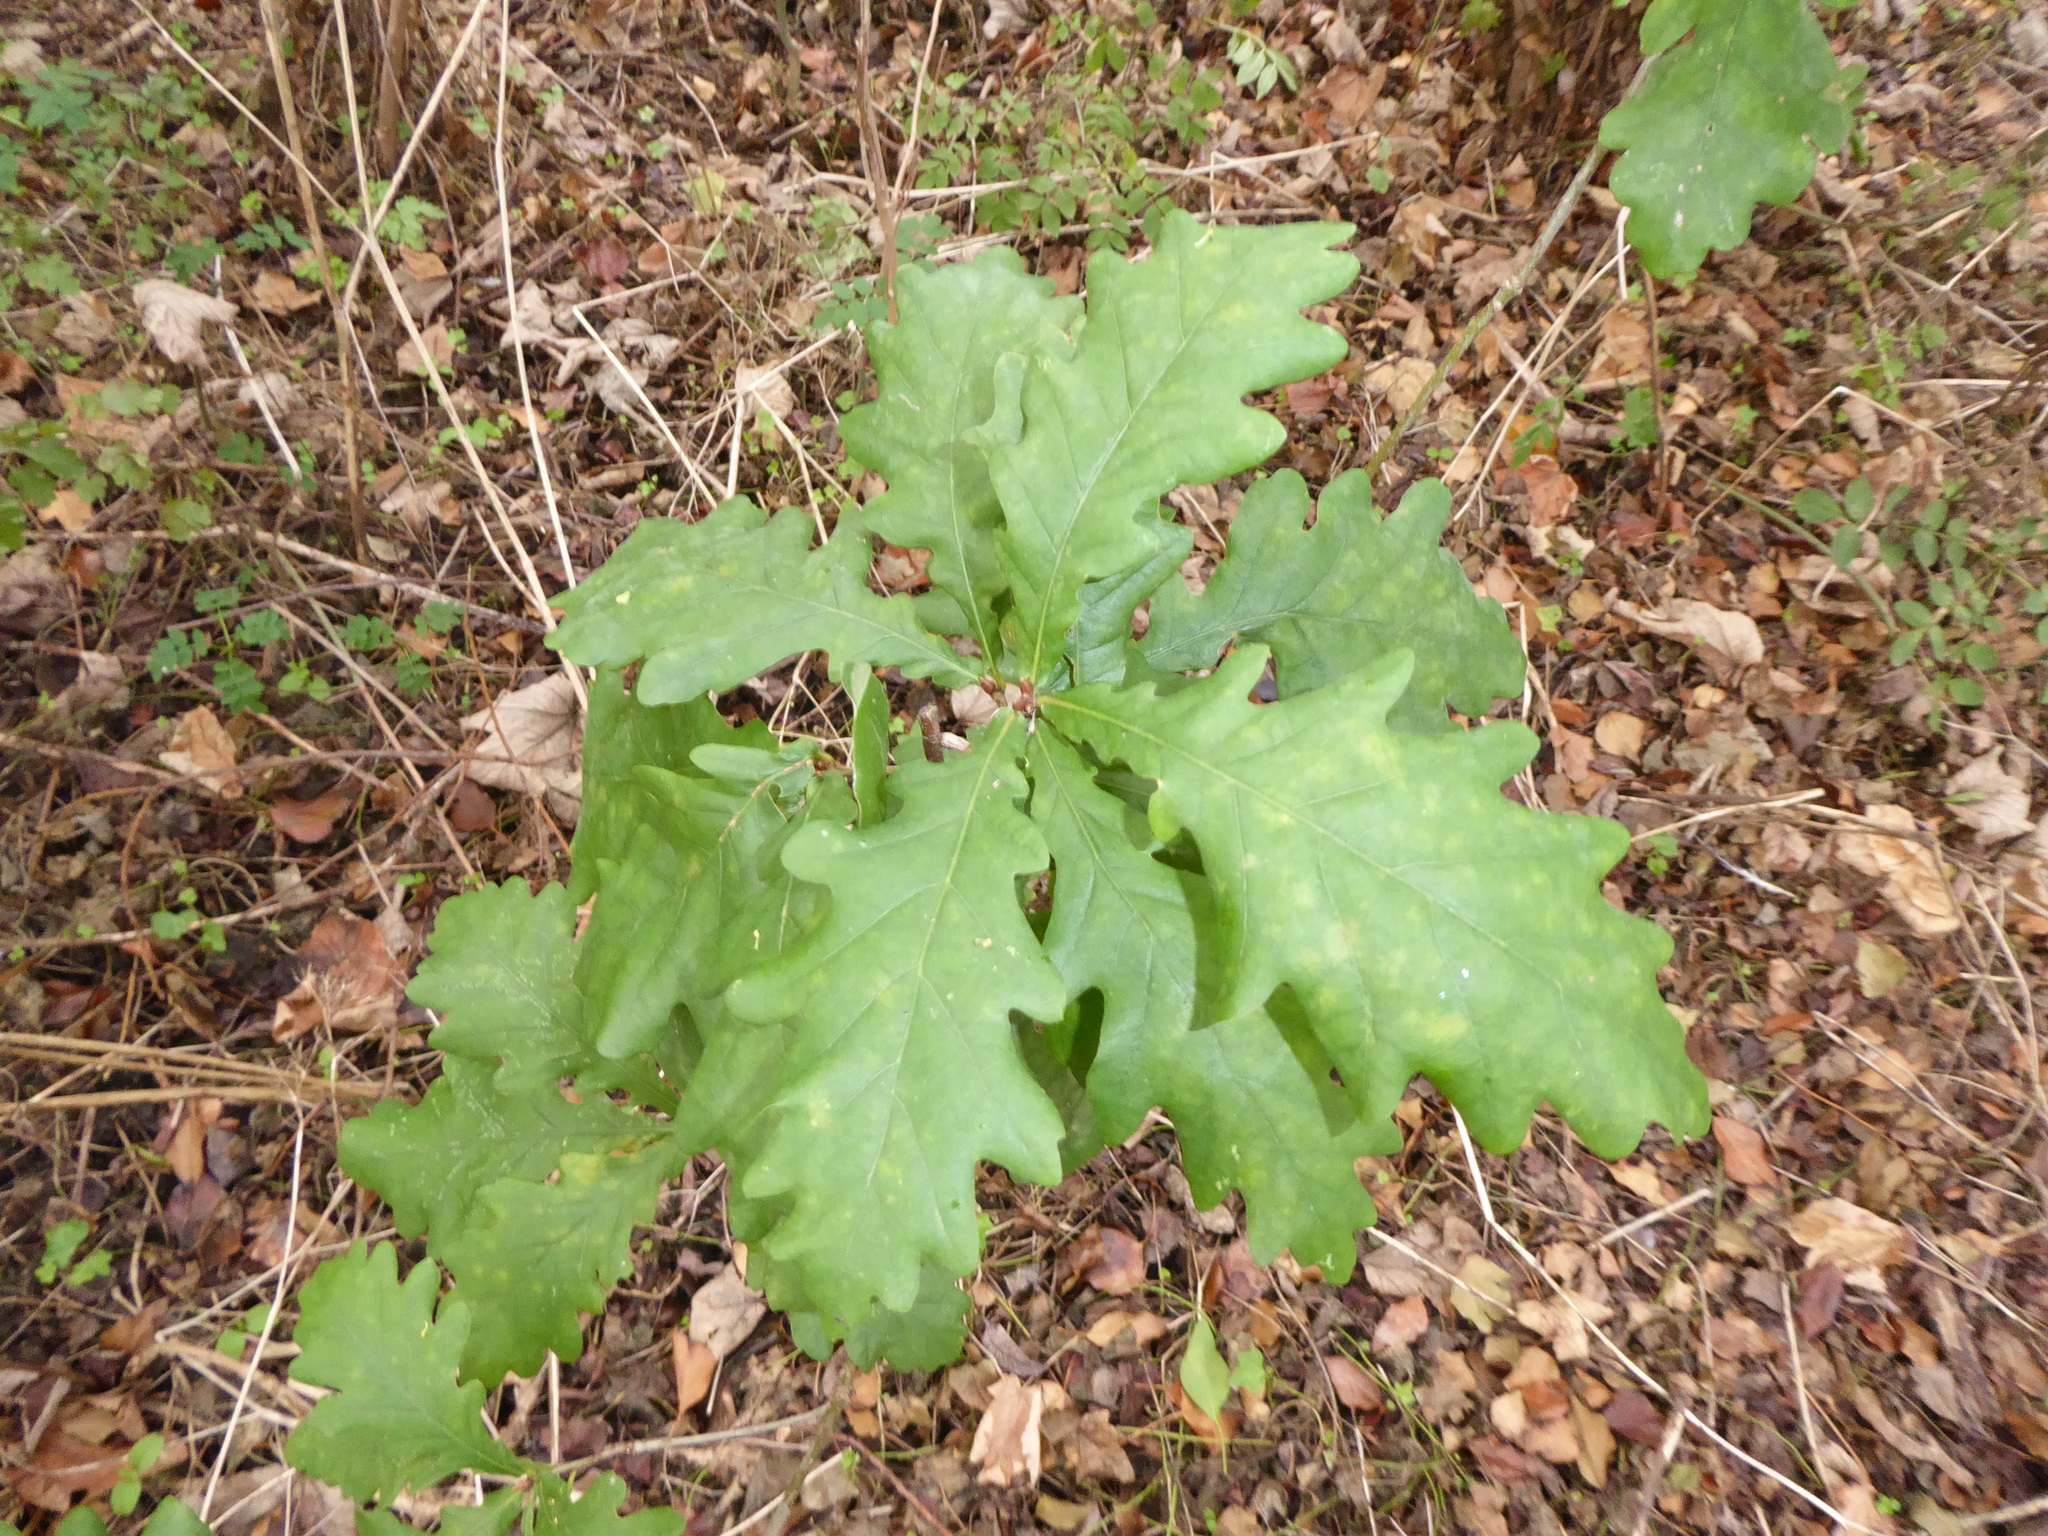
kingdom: Plantae
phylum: Tracheophyta
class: Magnoliopsida
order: Fagales
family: Fagaceae
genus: Quercus
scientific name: Quercus robur
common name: Pedunculate oak
